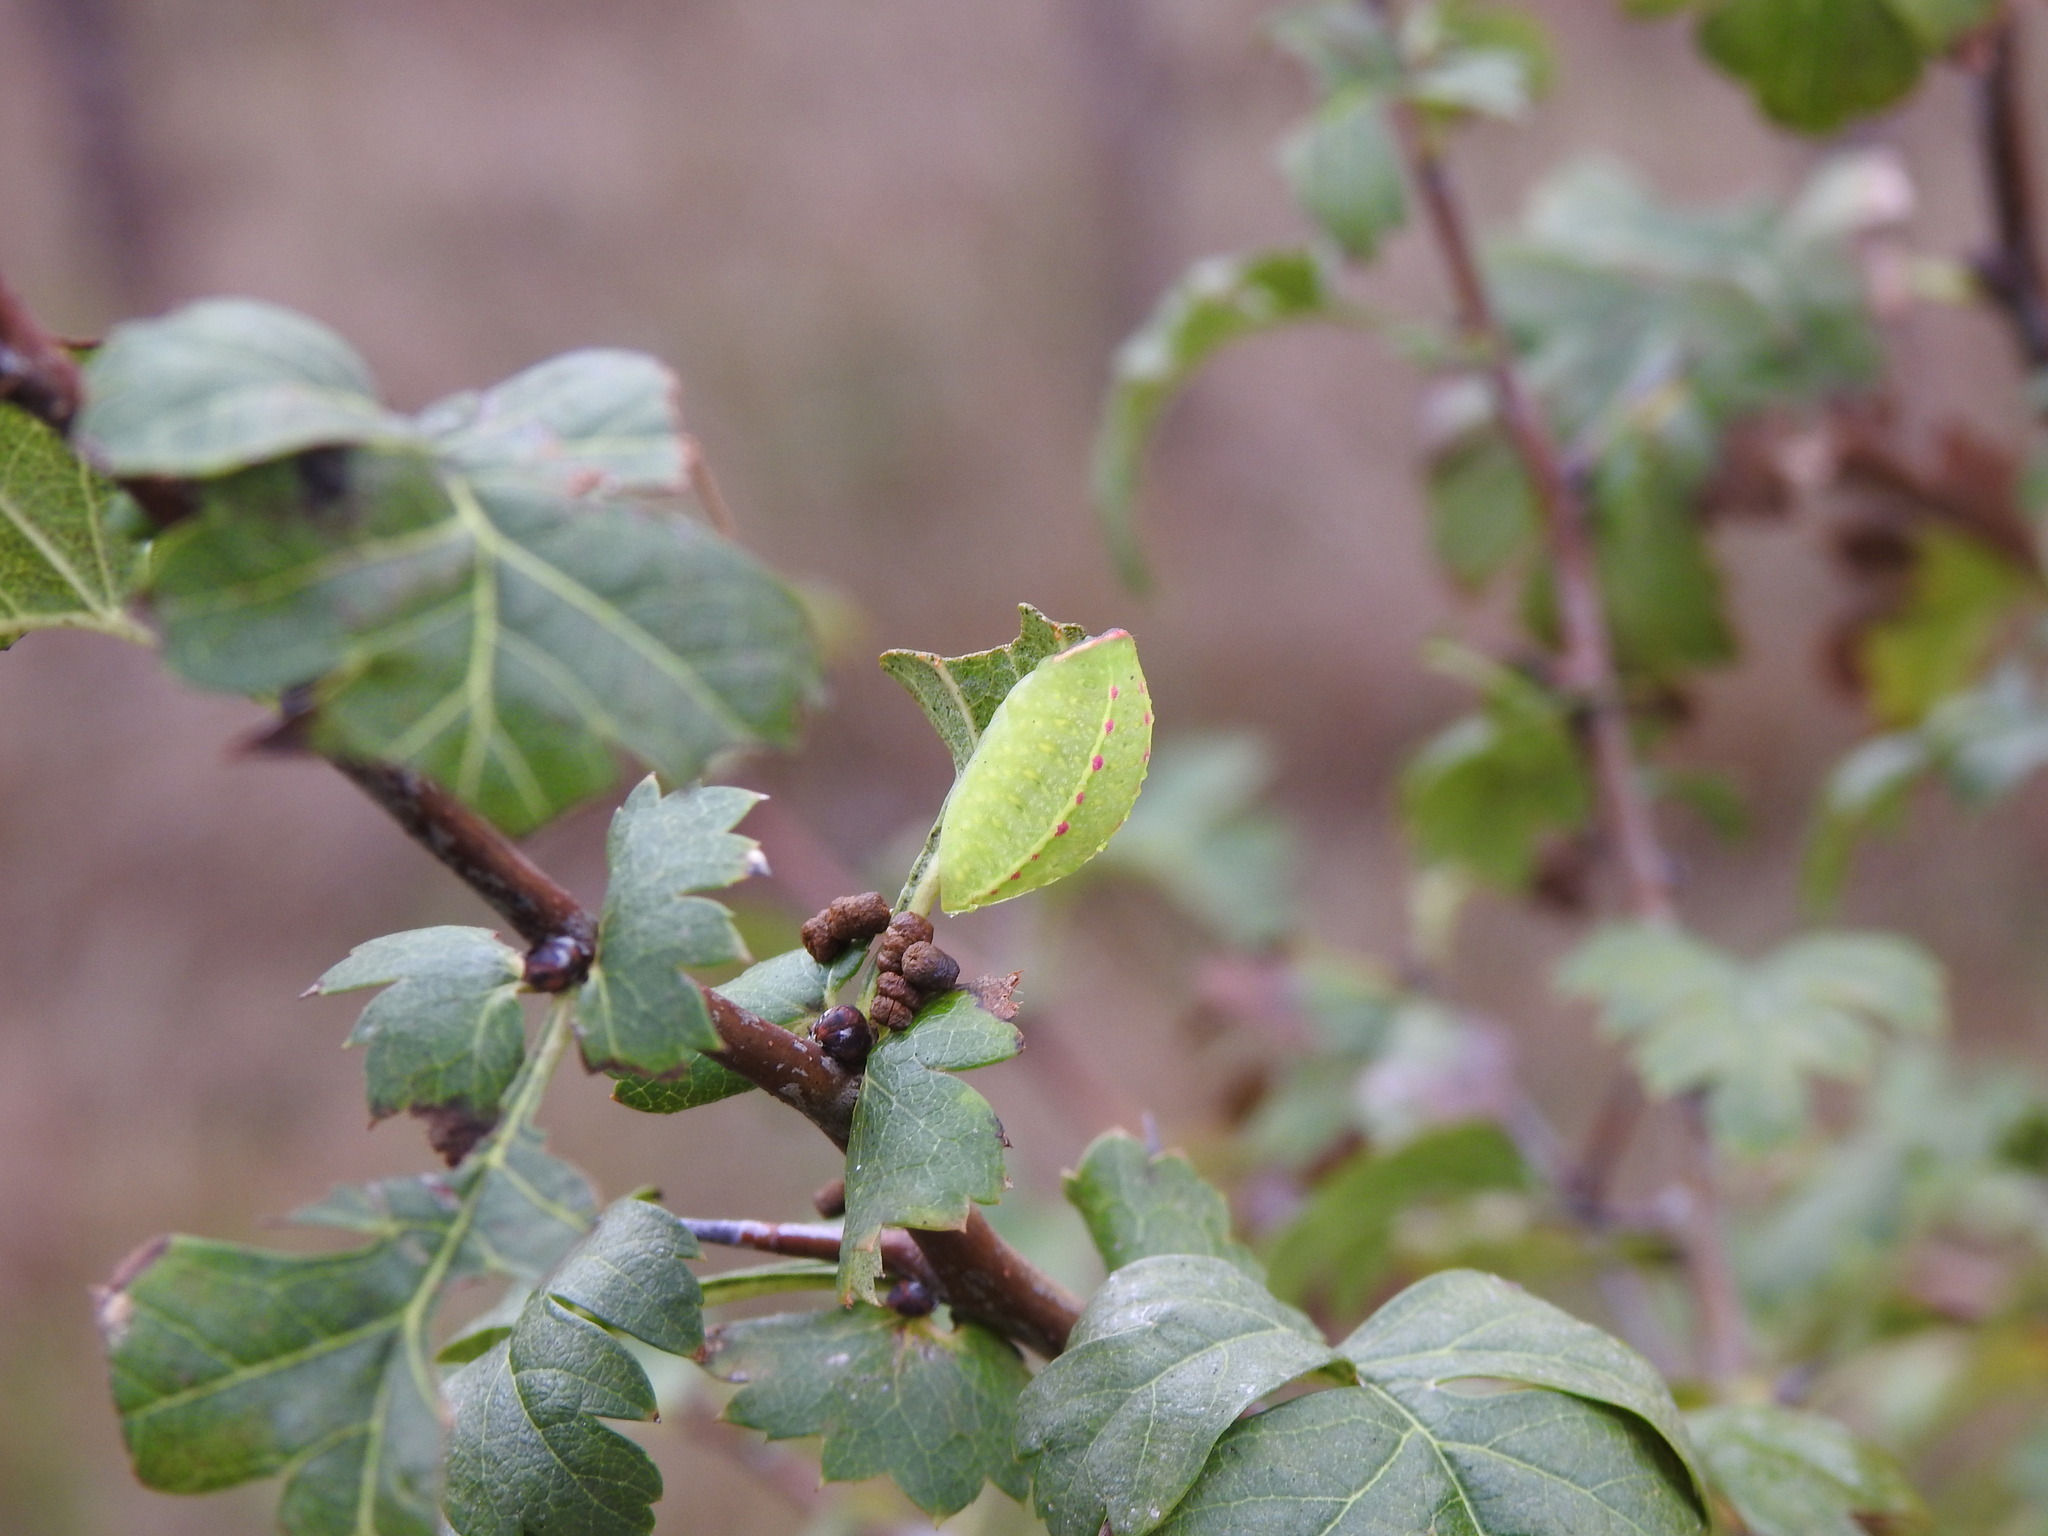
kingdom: Animalia
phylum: Arthropoda
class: Insecta
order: Lepidoptera
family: Papilionidae
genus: Iphiclides
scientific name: Iphiclides feisthamelii
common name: Iberian scarce swallowtail
